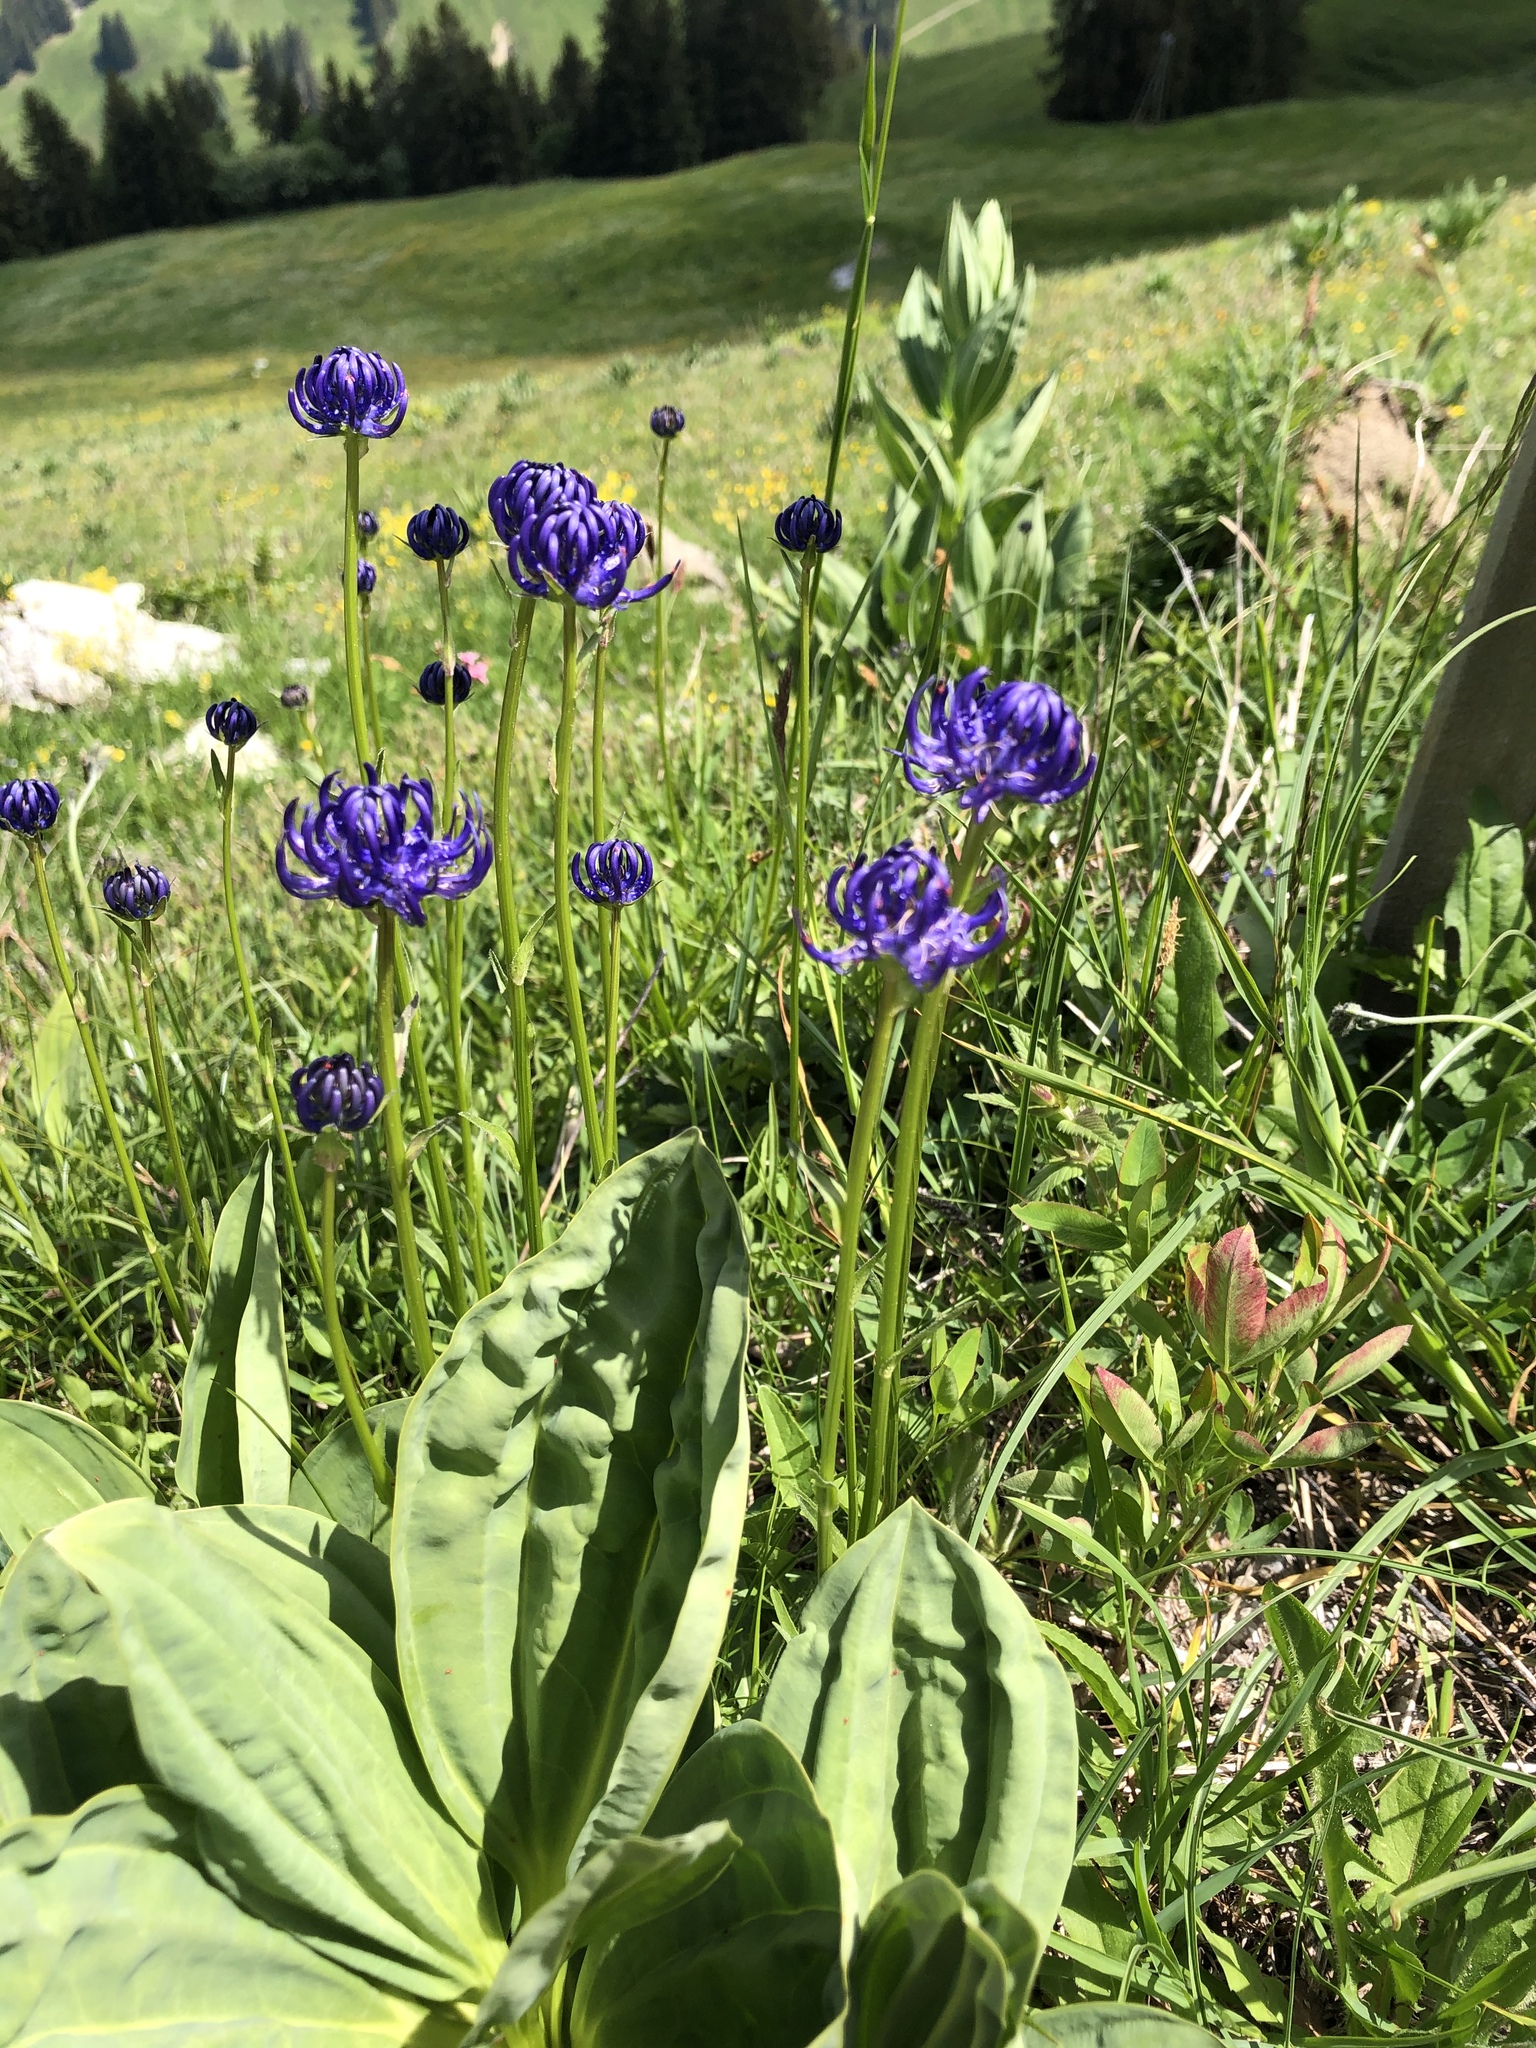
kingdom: Plantae
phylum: Tracheophyta
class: Magnoliopsida
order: Asterales
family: Campanulaceae
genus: Phyteuma
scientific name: Phyteuma orbiculare
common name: Round-headed rampion
